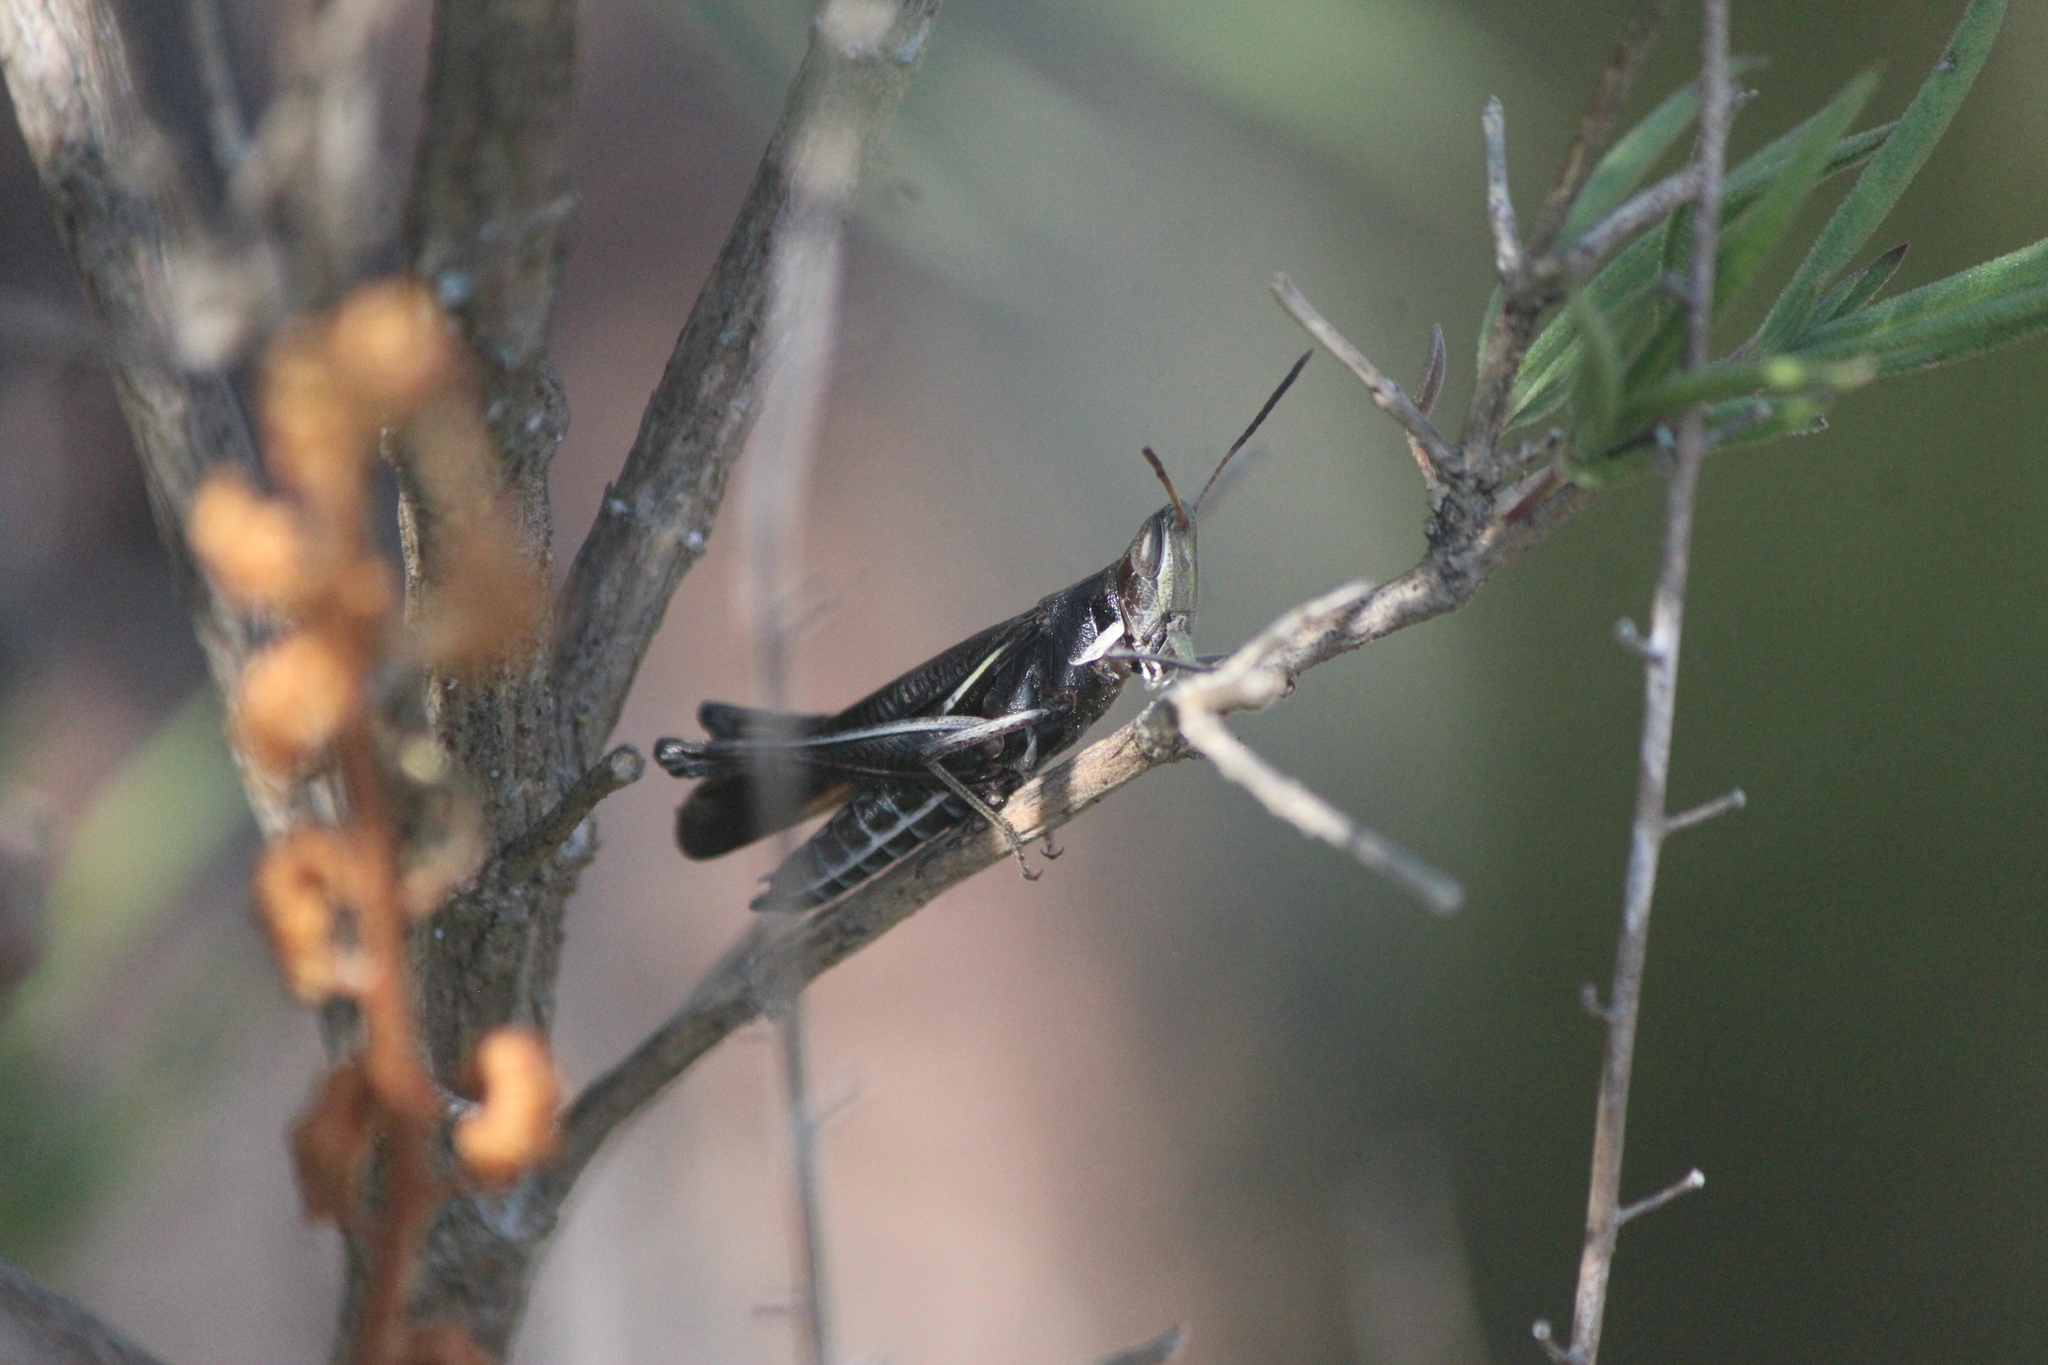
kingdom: Animalia
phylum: Arthropoda
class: Insecta
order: Orthoptera
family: Acrididae
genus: Syrbula
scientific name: Syrbula montezuma
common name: Montezuma's grasshopper
